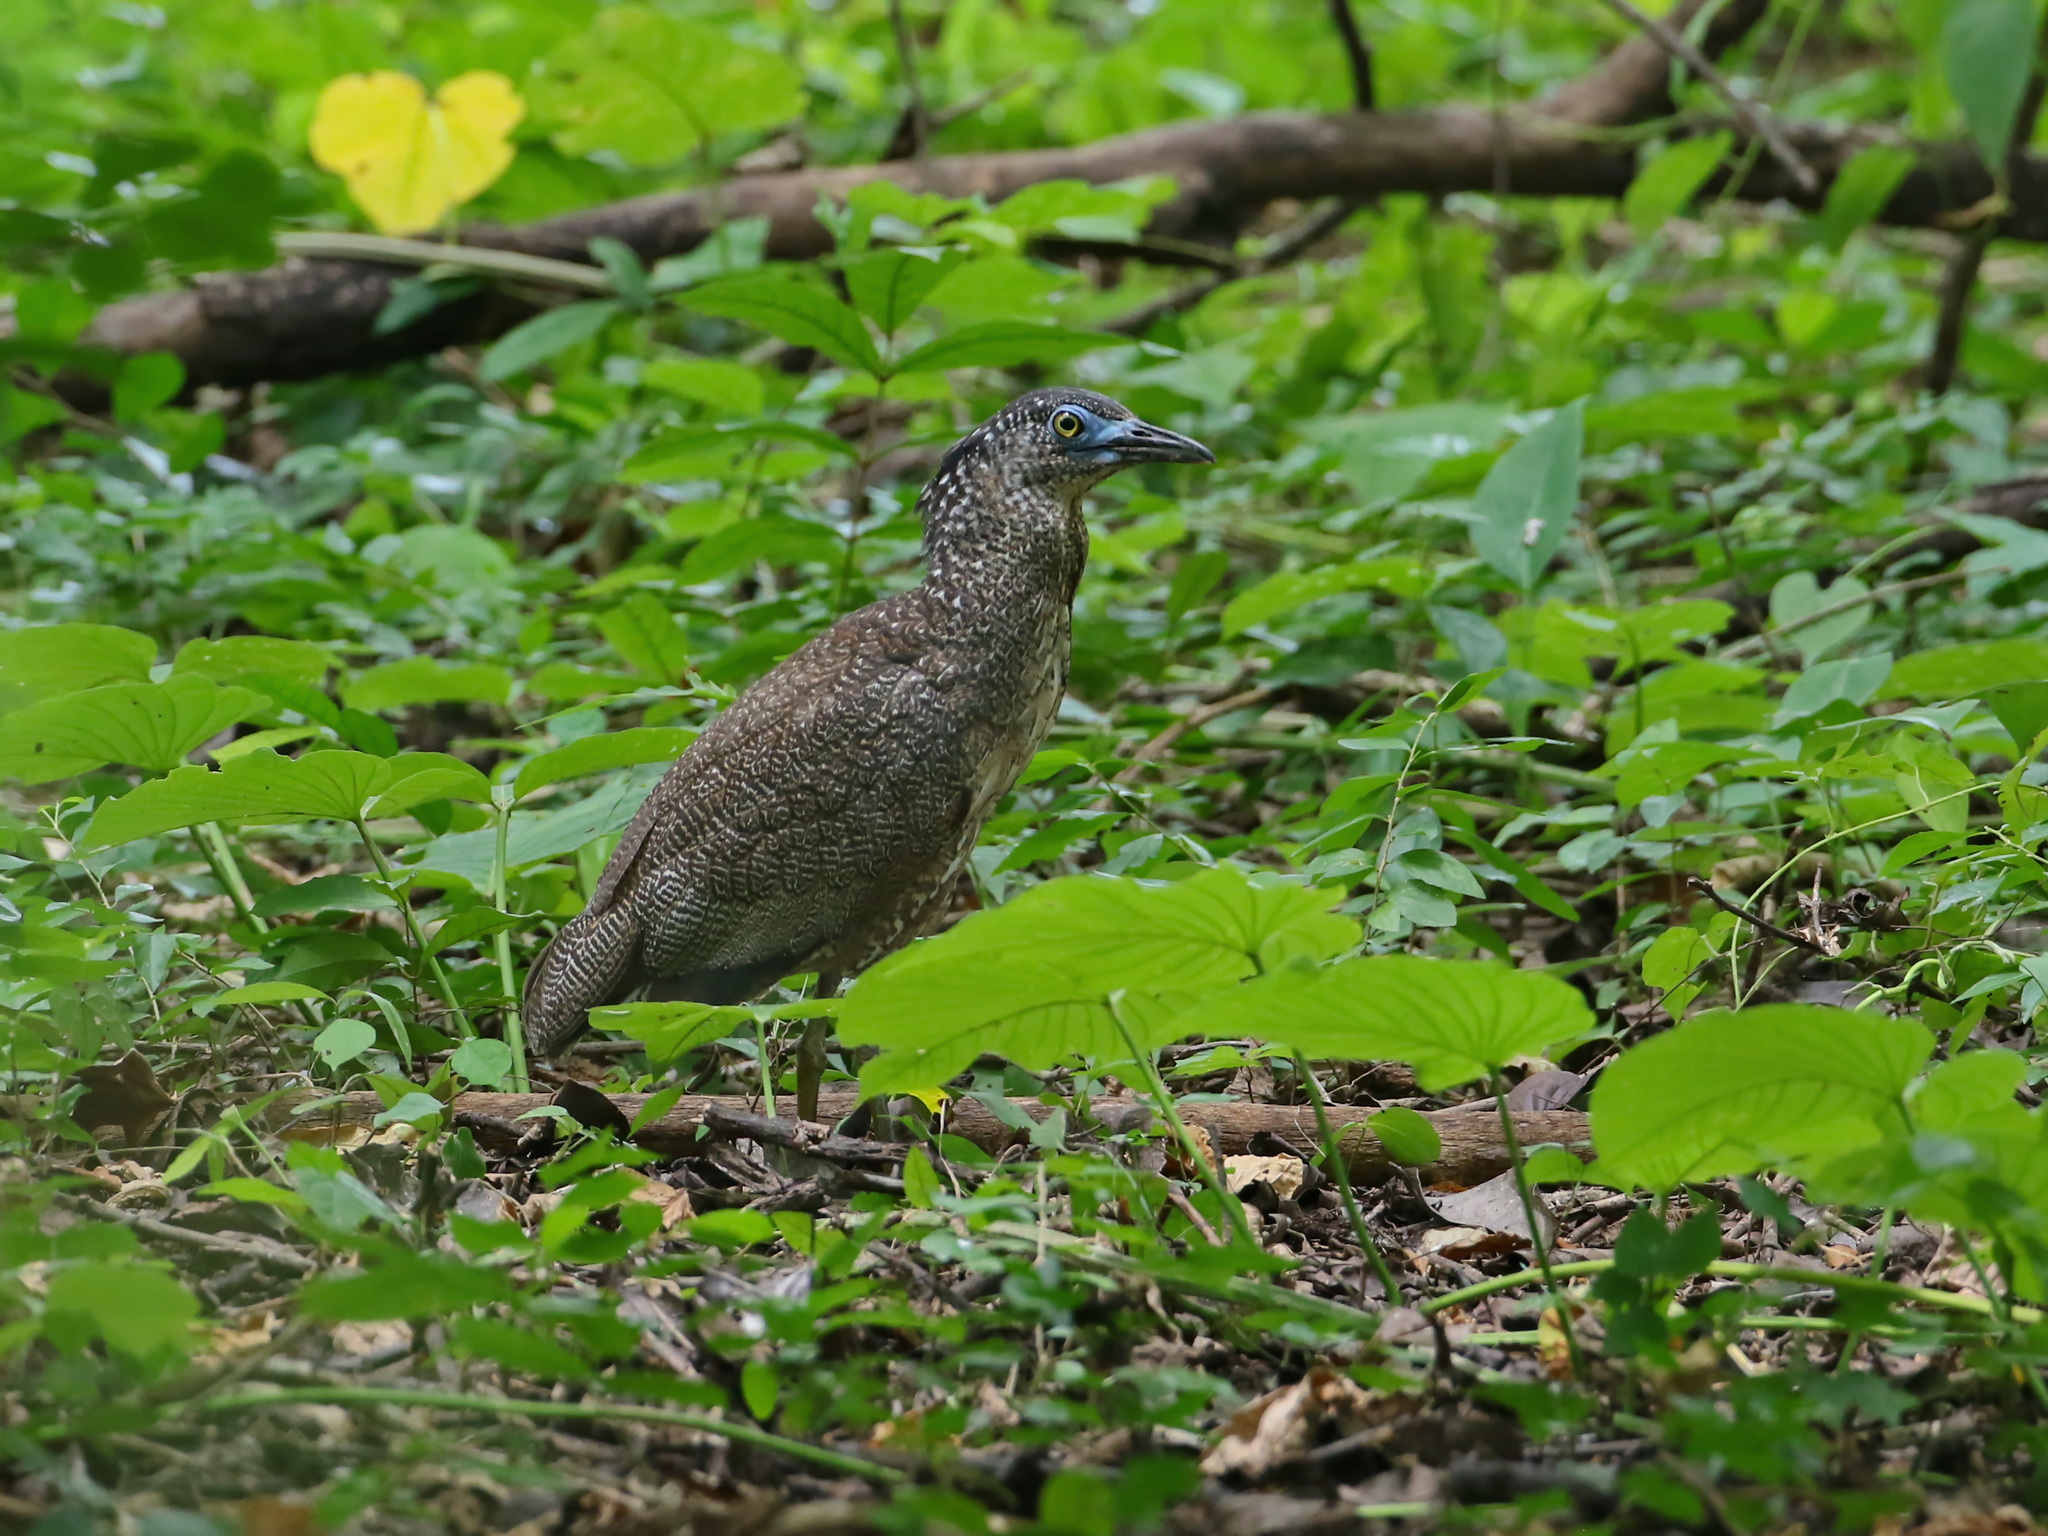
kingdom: Animalia
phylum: Chordata
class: Aves
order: Pelecaniformes
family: Ardeidae
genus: Gorsachius
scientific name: Gorsachius melanolophus
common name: Malayan night heron
